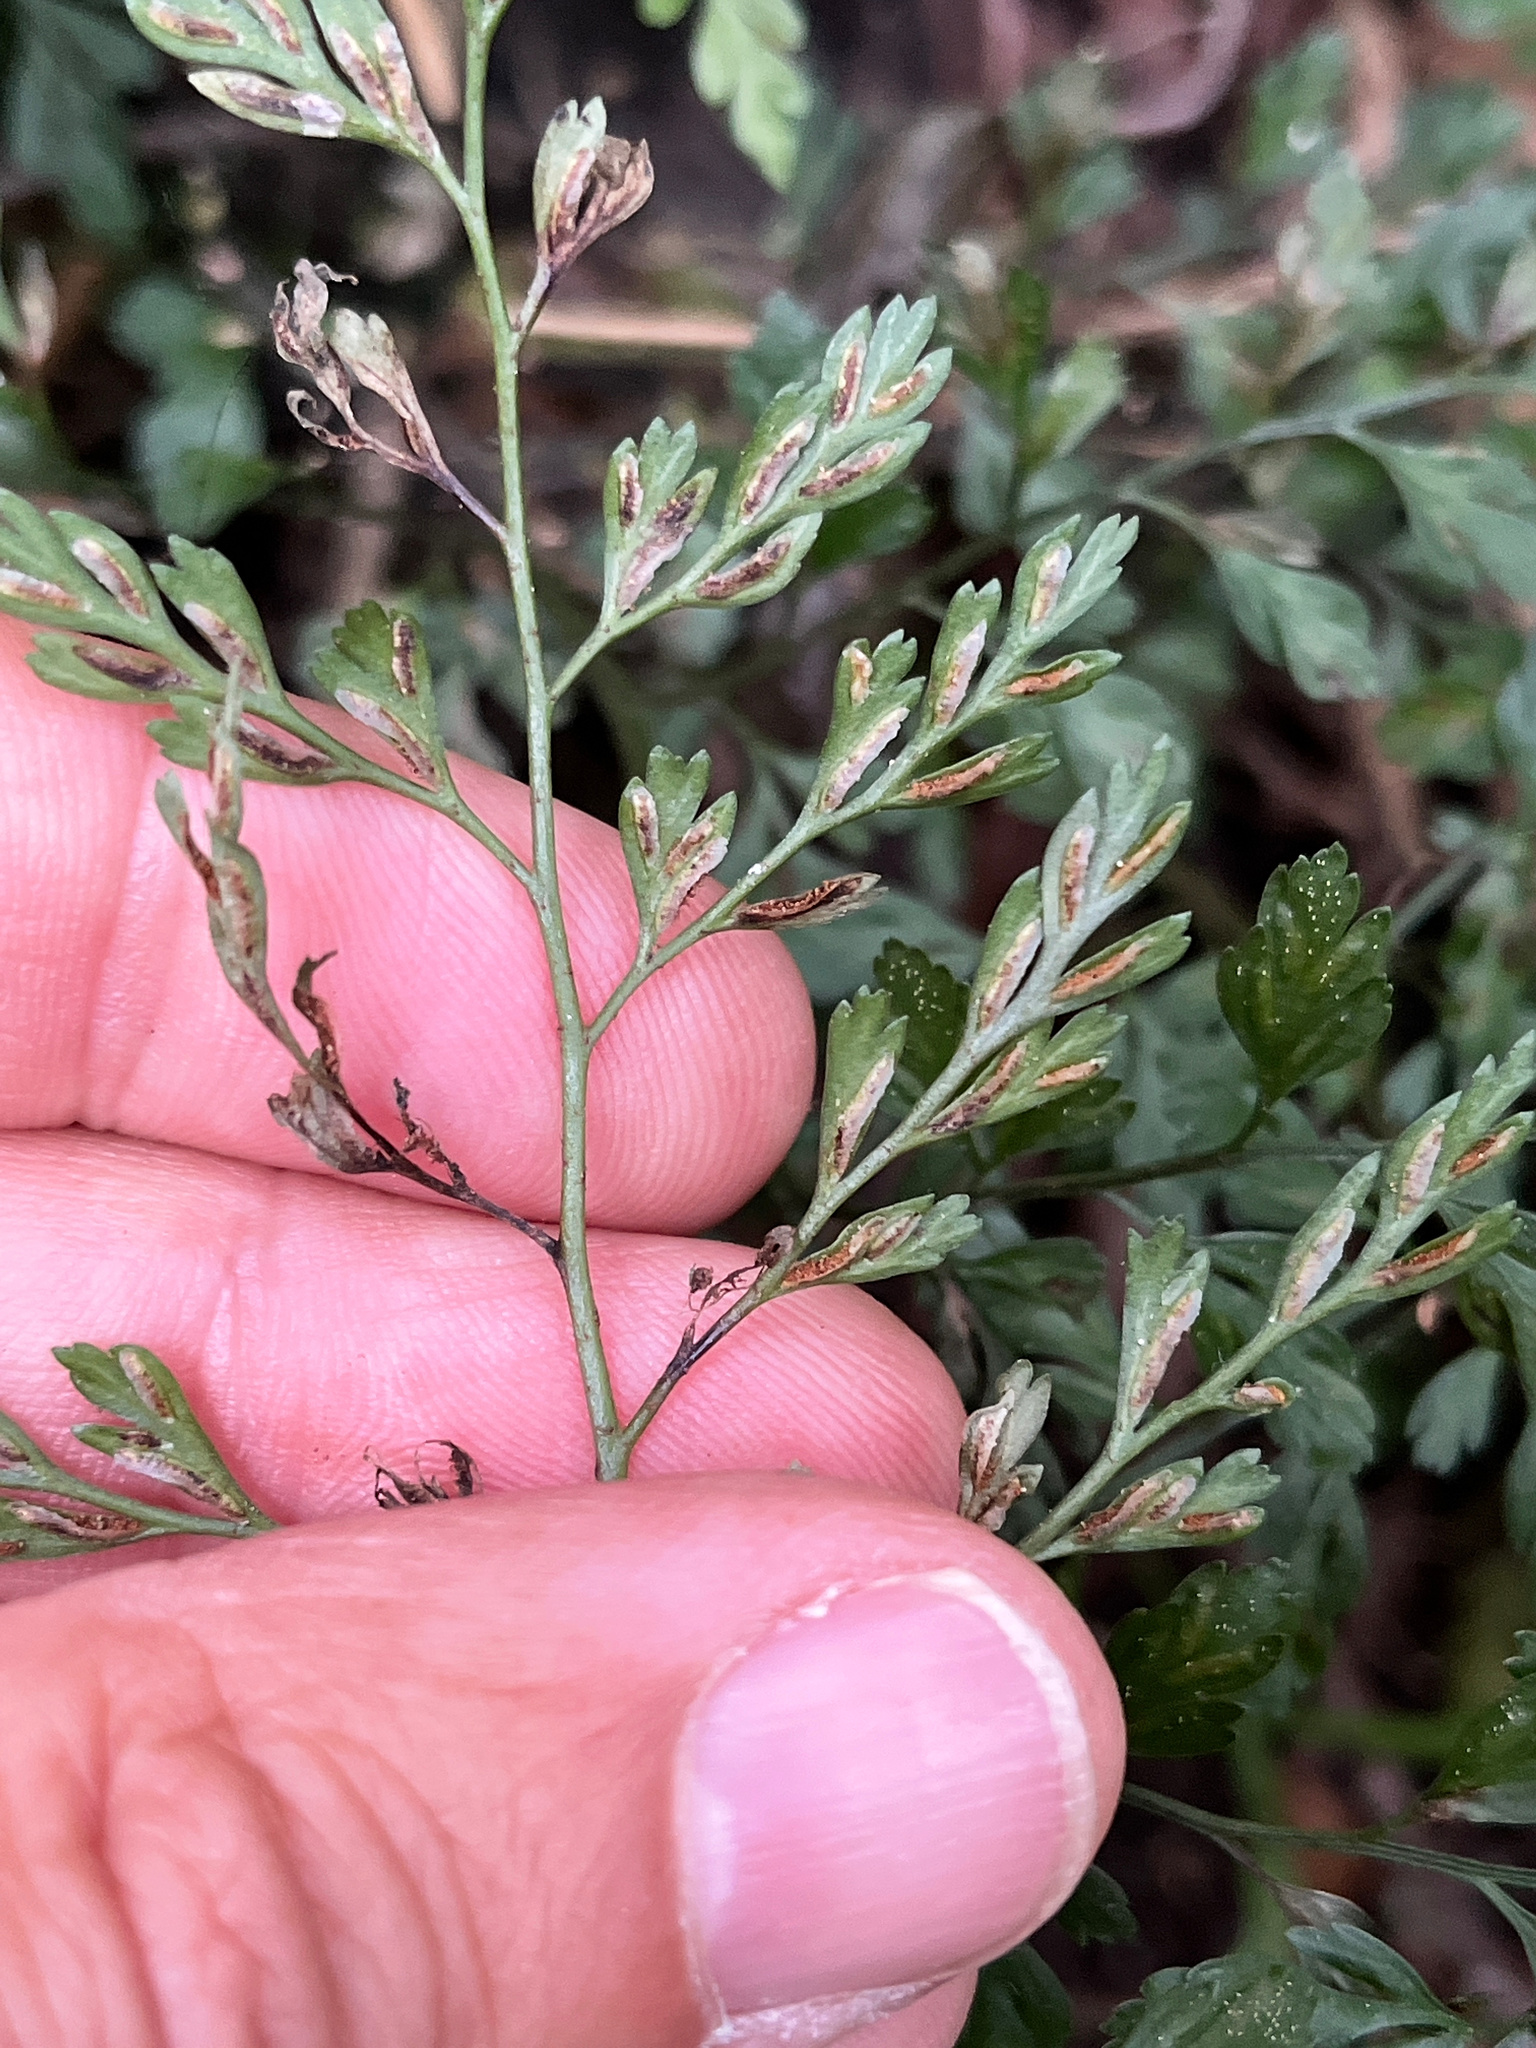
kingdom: Plantae
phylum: Tracheophyta
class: Polypodiopsida
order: Polypodiales
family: Aspleniaceae
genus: Asplenium
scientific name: Asplenium hookerianum
